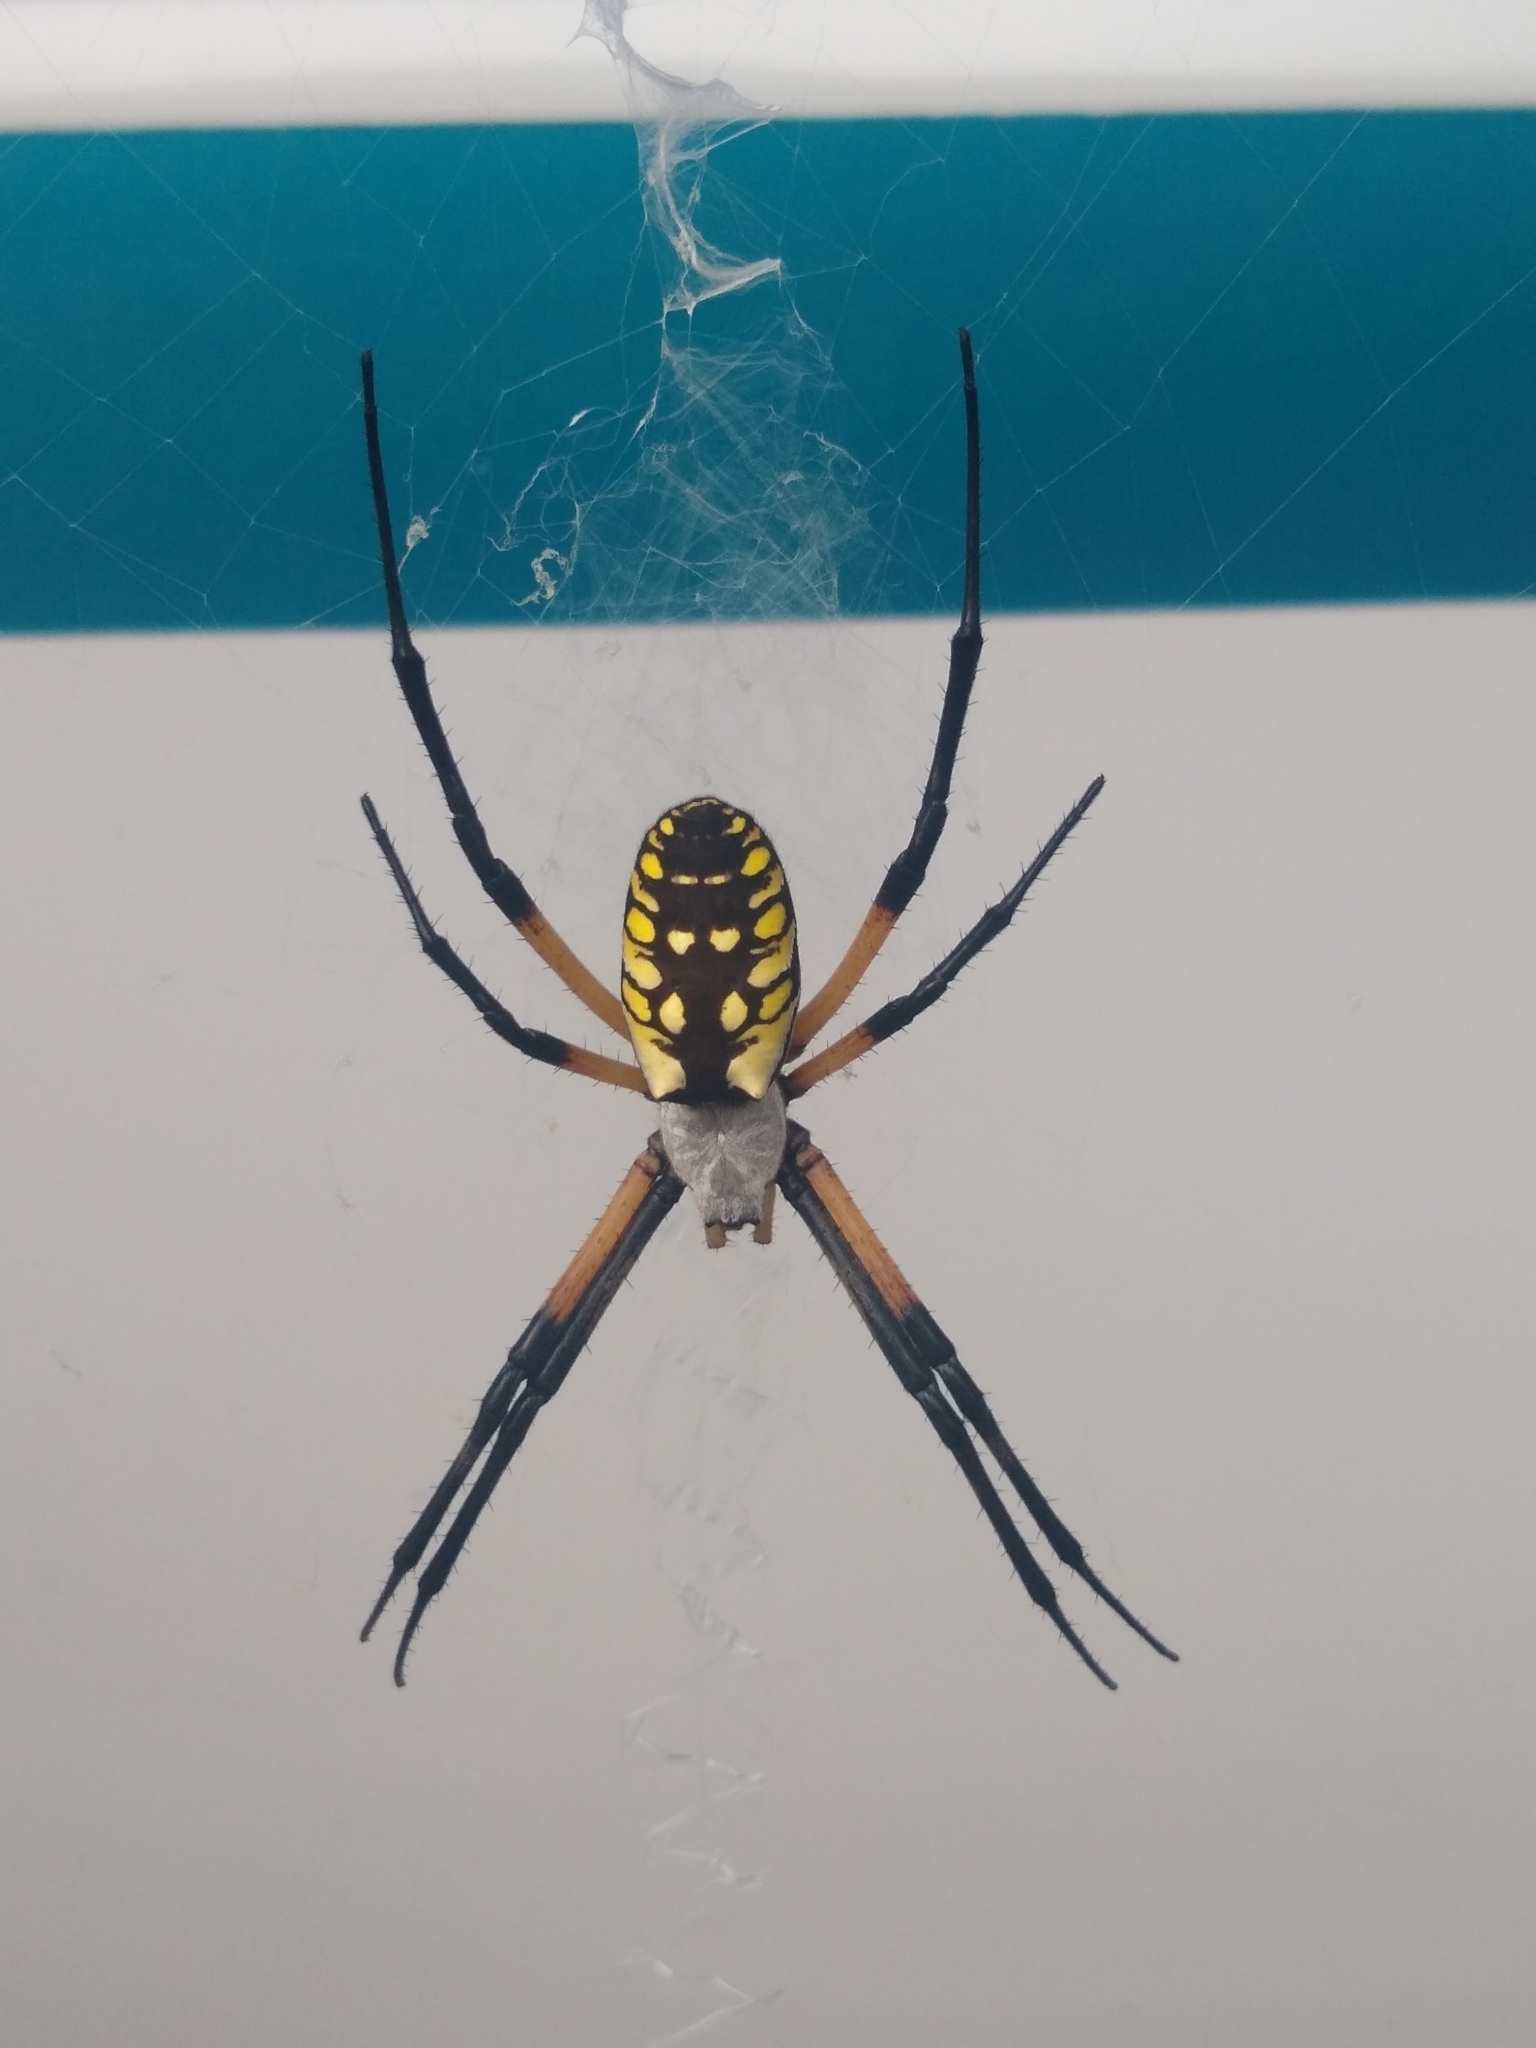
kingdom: Animalia
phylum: Arthropoda
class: Arachnida
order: Araneae
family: Araneidae
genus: Argiope
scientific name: Argiope aurantia
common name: Orb weavers
